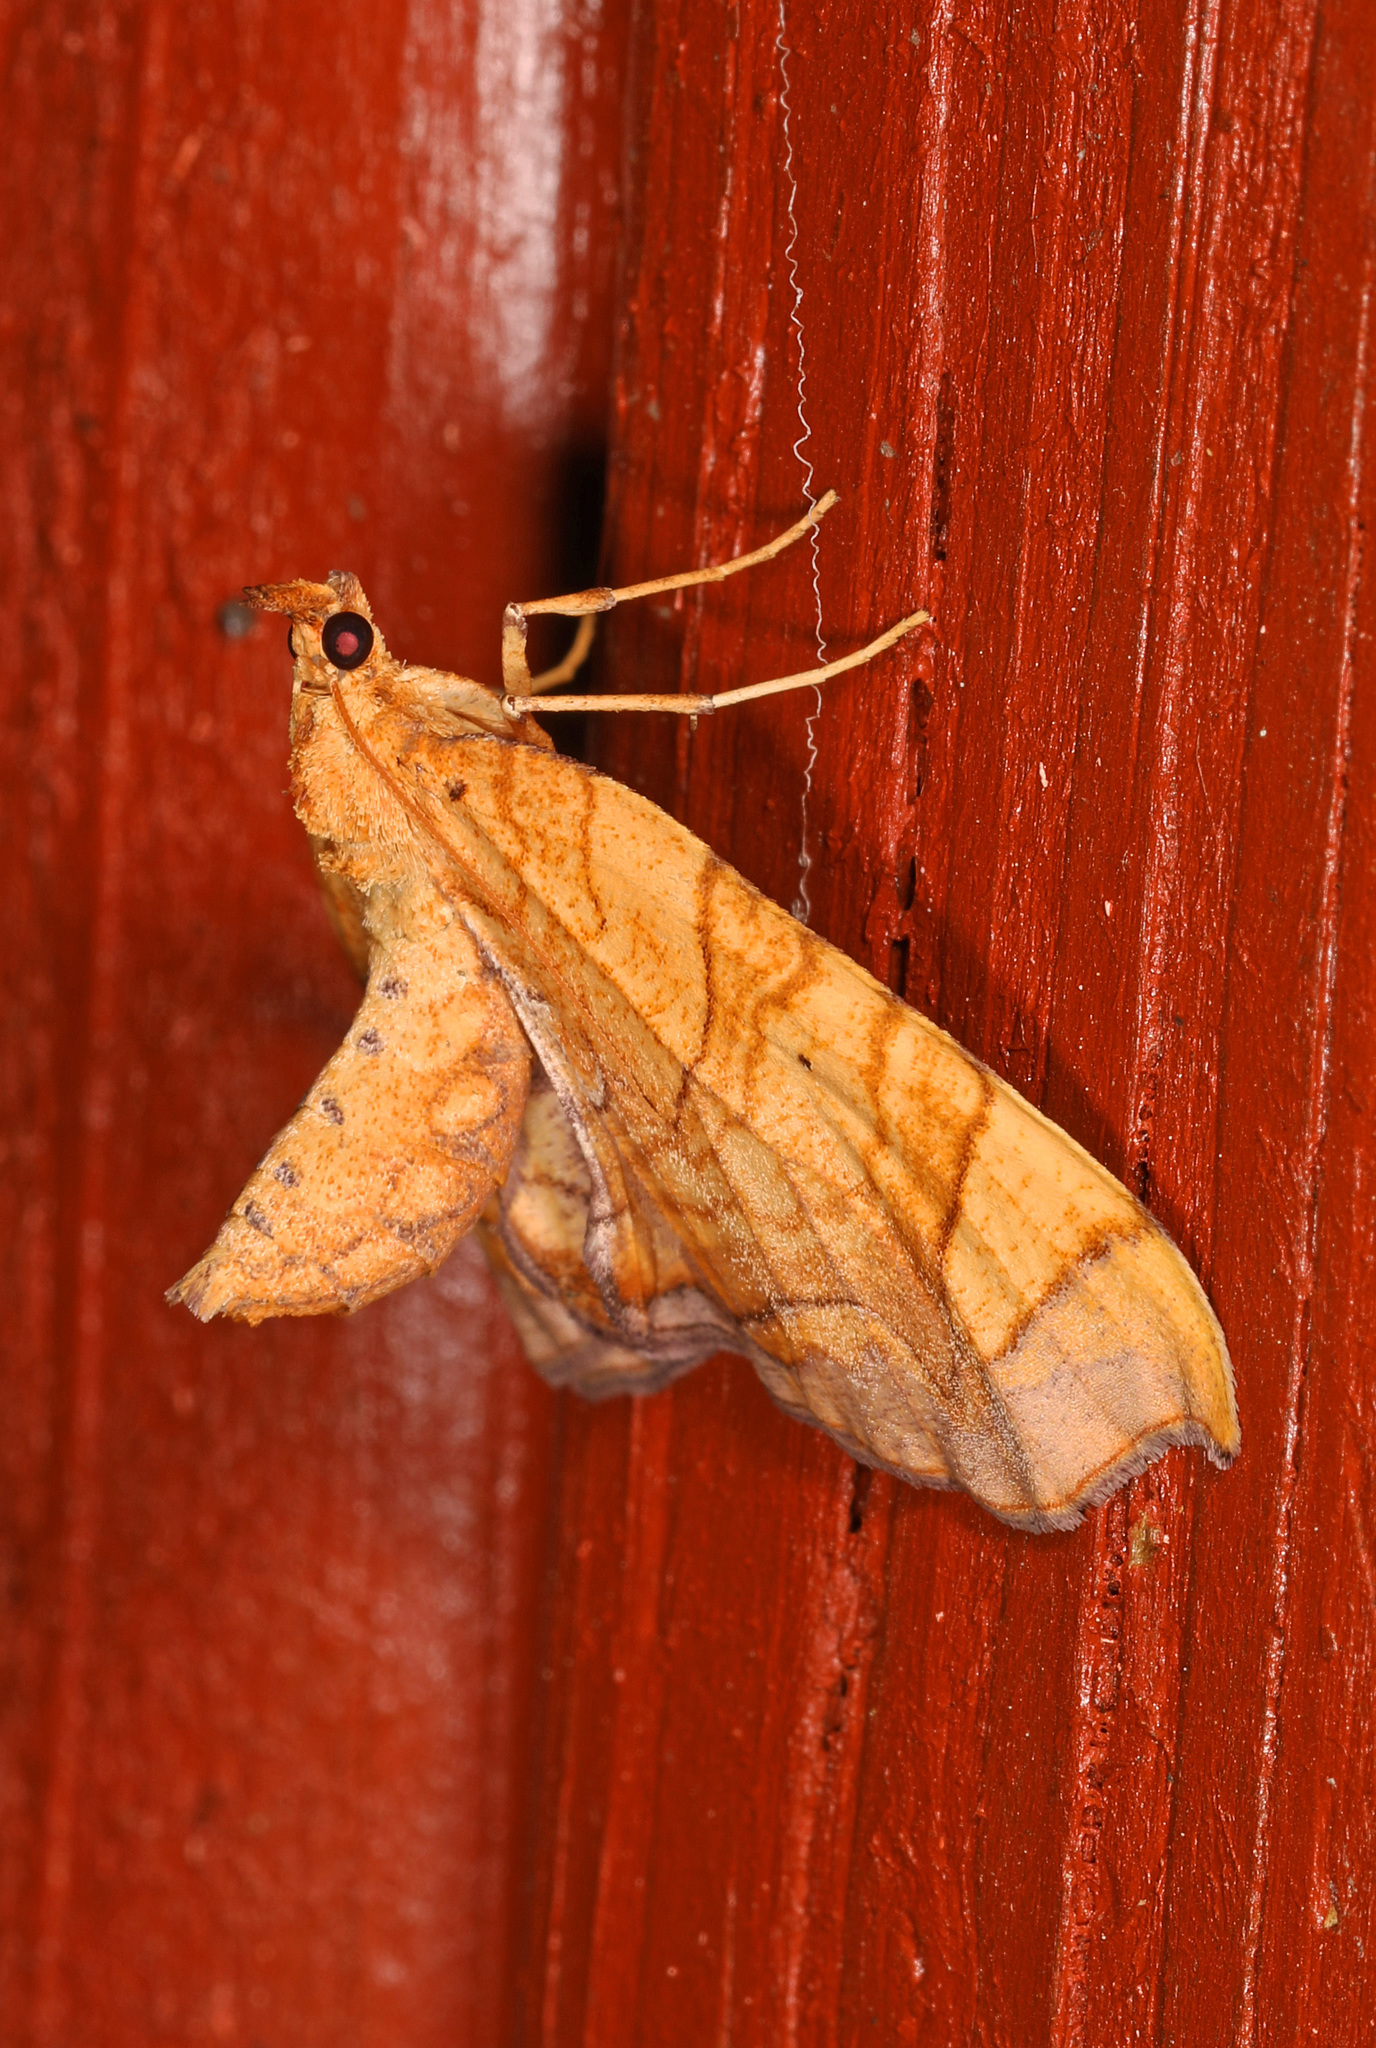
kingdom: Animalia
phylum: Arthropoda
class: Insecta
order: Lepidoptera
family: Geometridae
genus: Eulithis
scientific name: Eulithis
